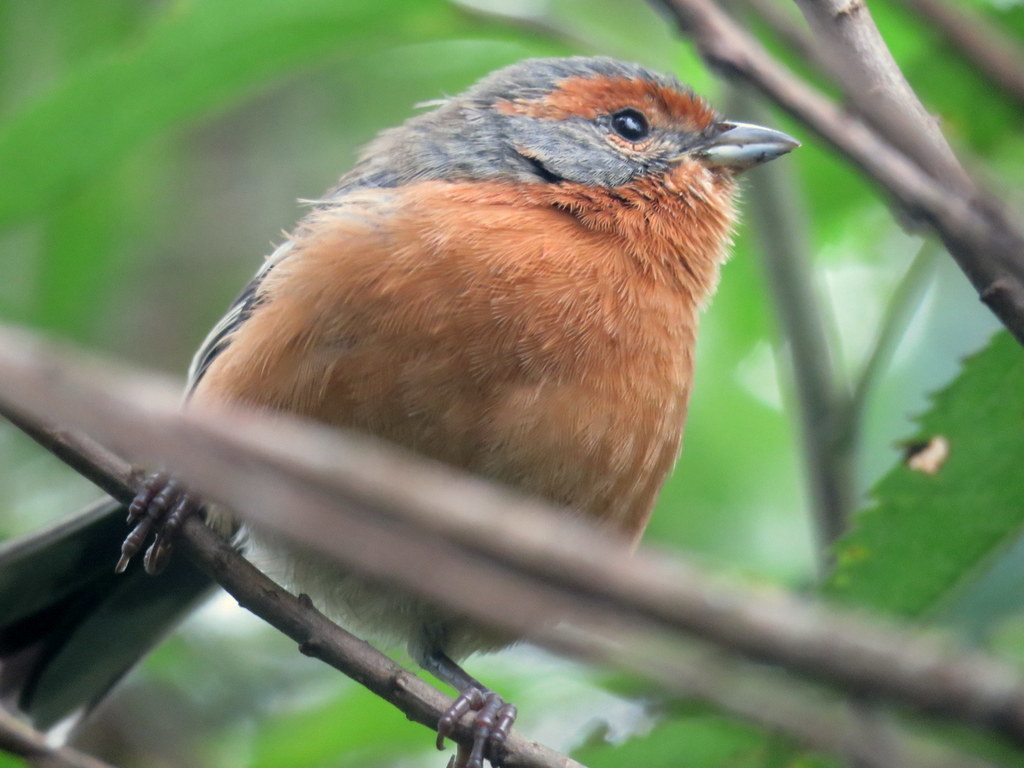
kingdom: Animalia
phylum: Chordata
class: Aves
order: Passeriformes
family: Thraupidae
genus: Microspingus
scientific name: Microspingus erythrophrys
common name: Rusty-browed warbling-finch
